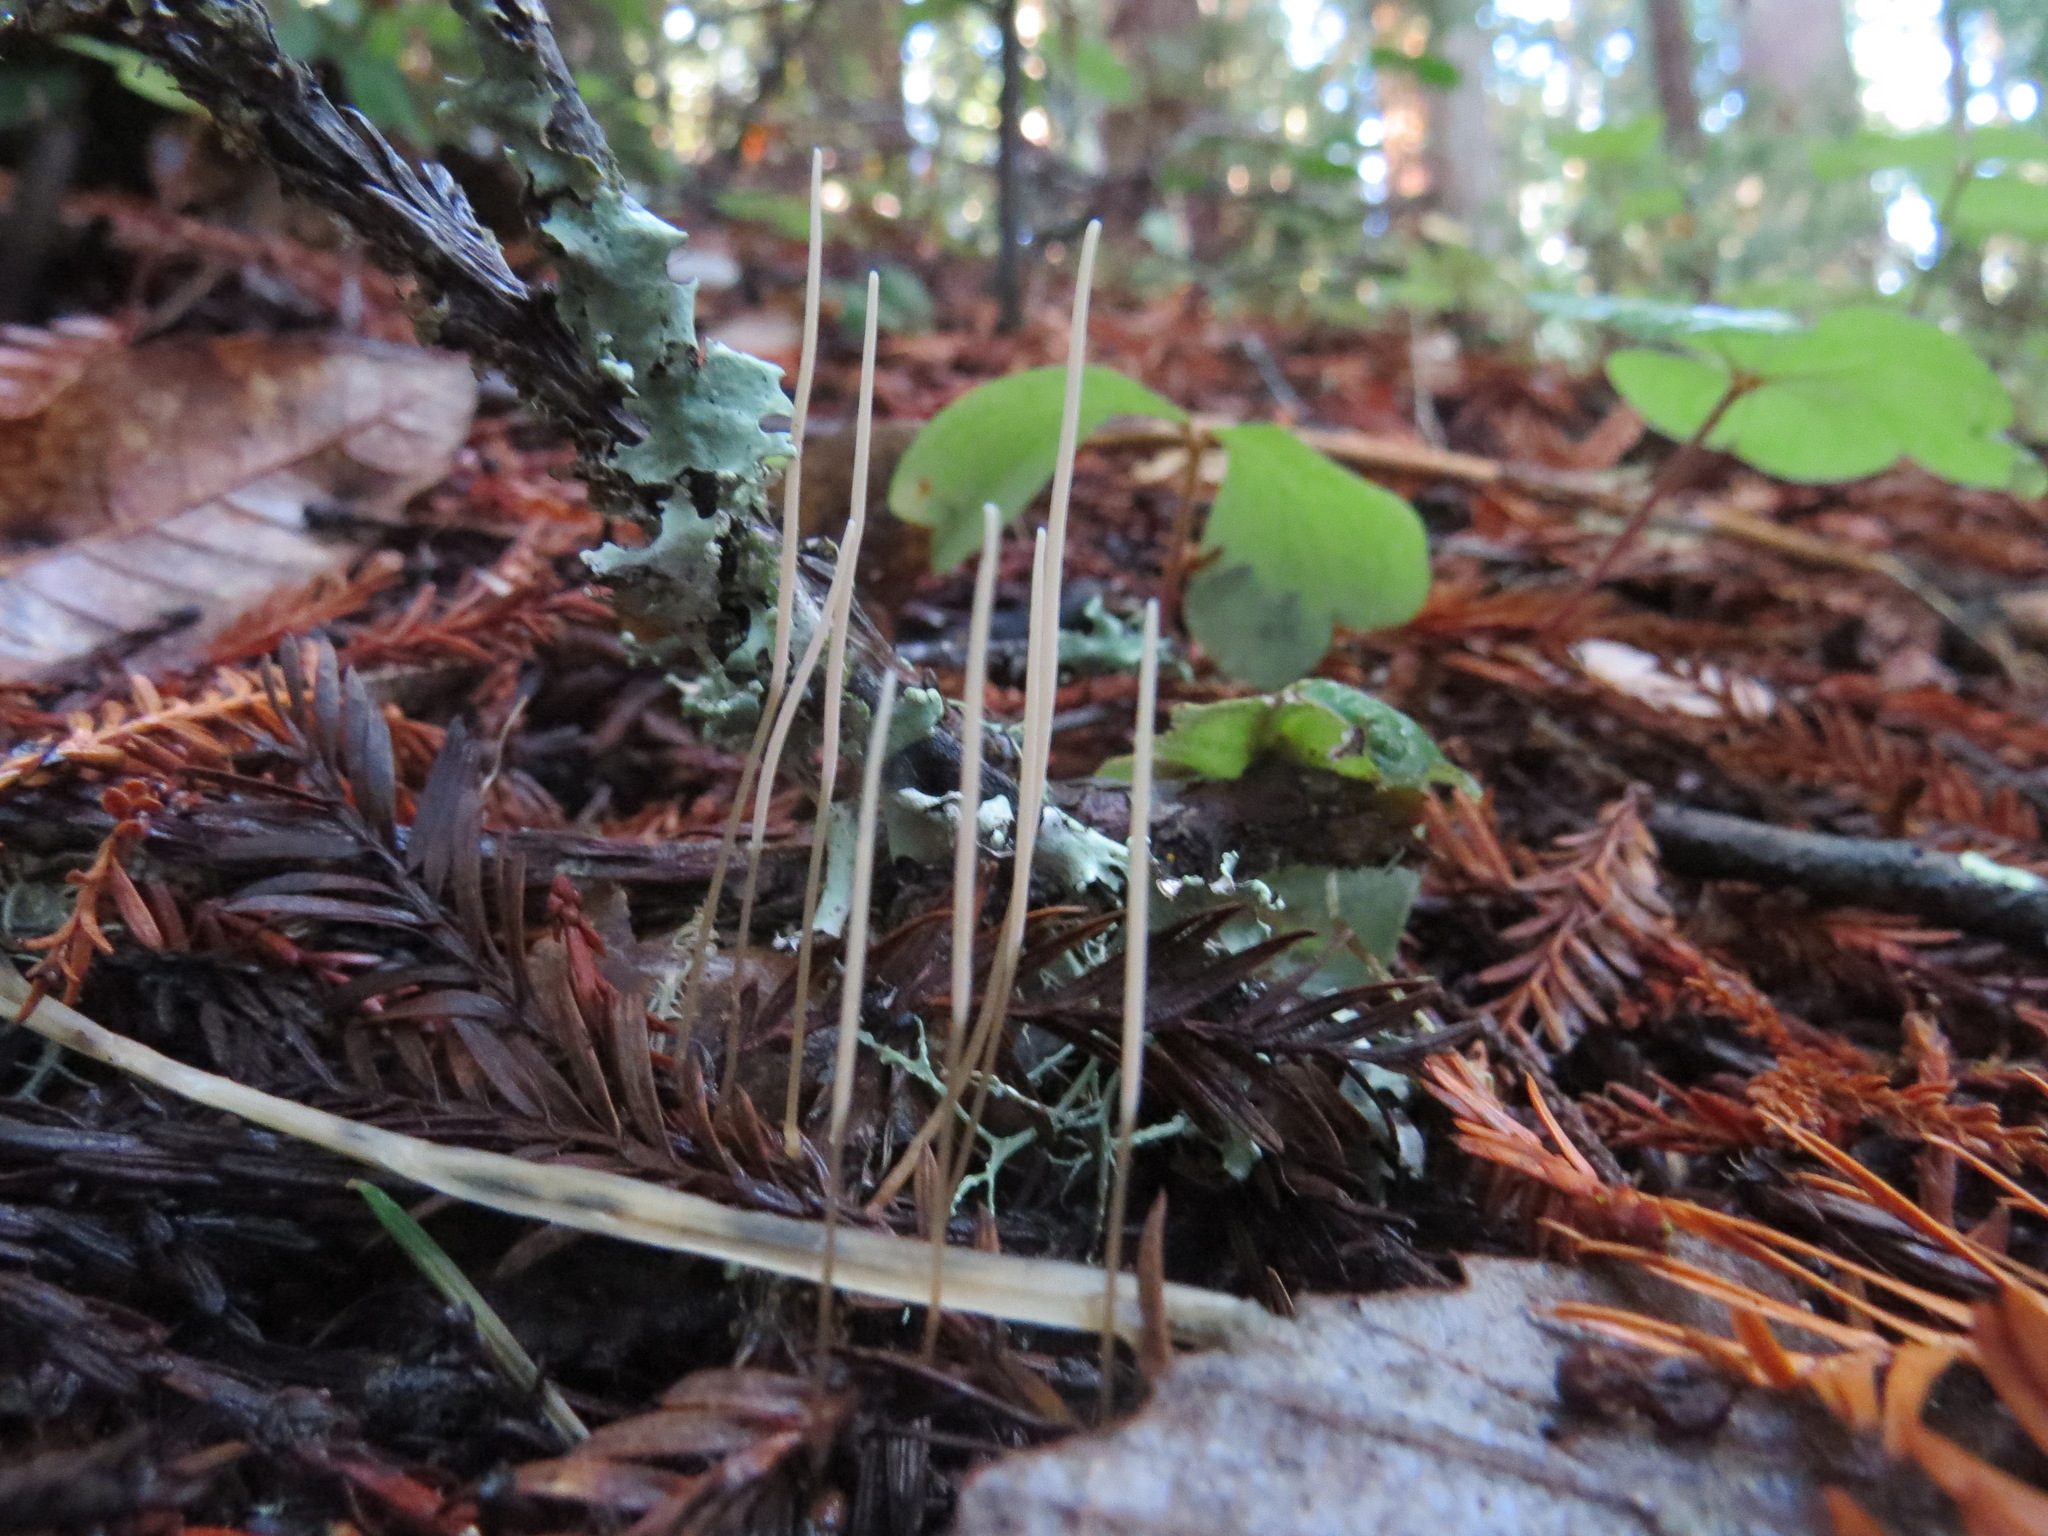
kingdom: Fungi
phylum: Basidiomycota
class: Agaricomycetes
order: Agaricales
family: Typhulaceae
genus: Typhula
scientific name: Typhula juncea
